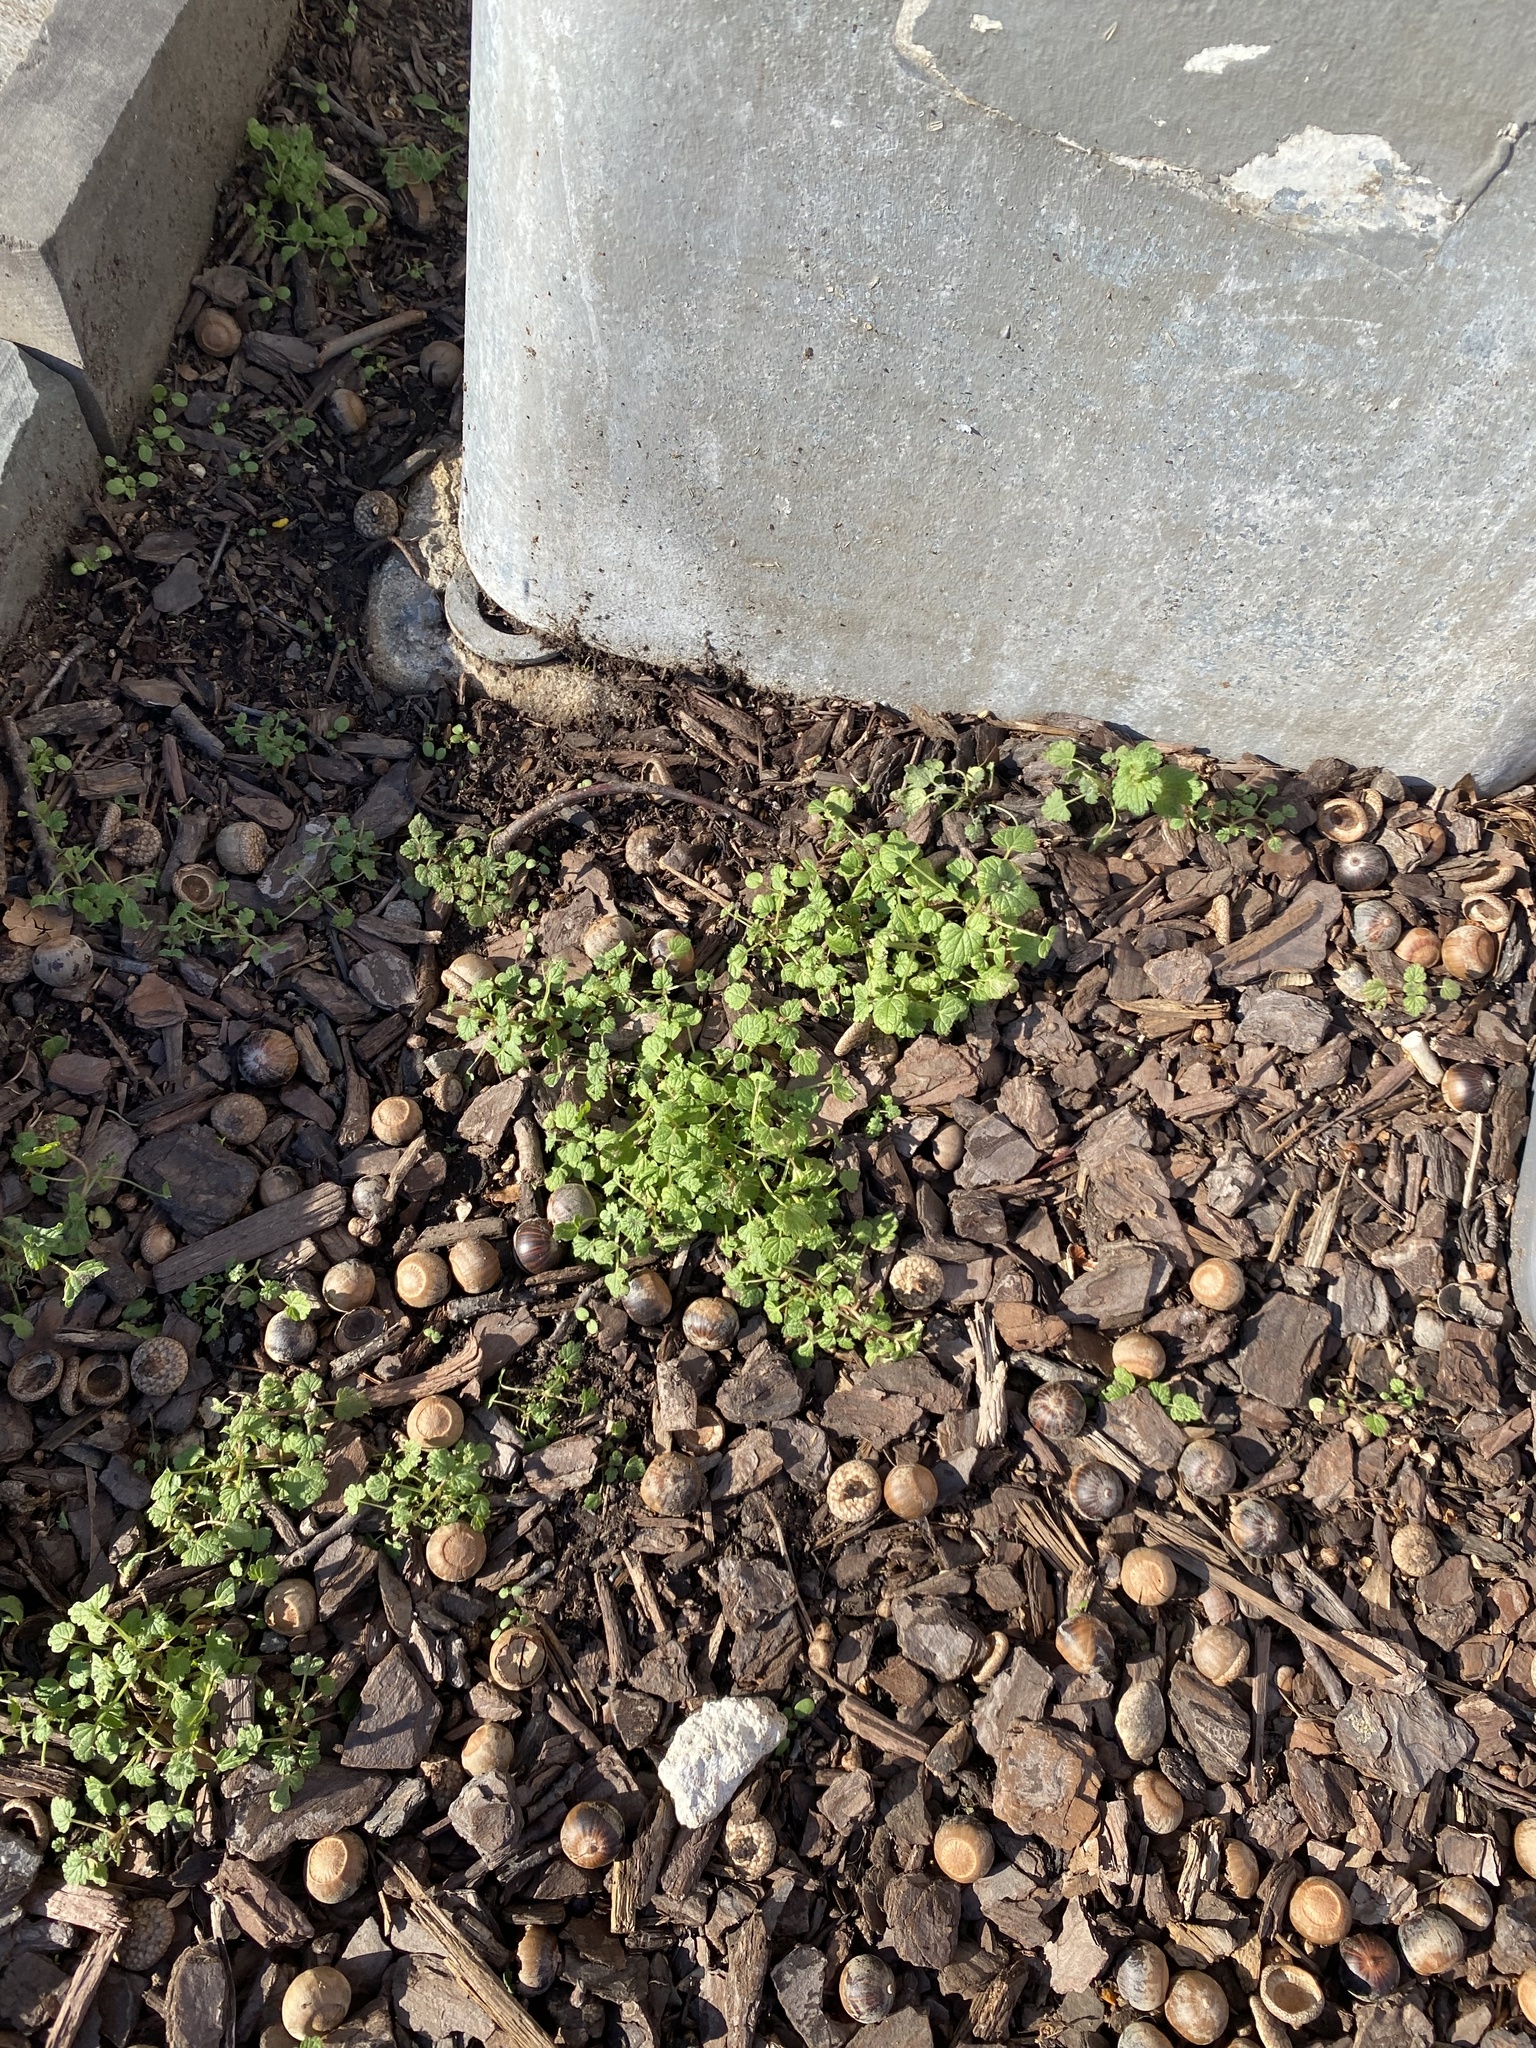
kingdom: Plantae
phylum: Tracheophyta
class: Magnoliopsida
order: Lamiales
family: Lamiaceae
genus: Lamium
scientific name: Lamium amplexicaule
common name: Henbit dead-nettle
